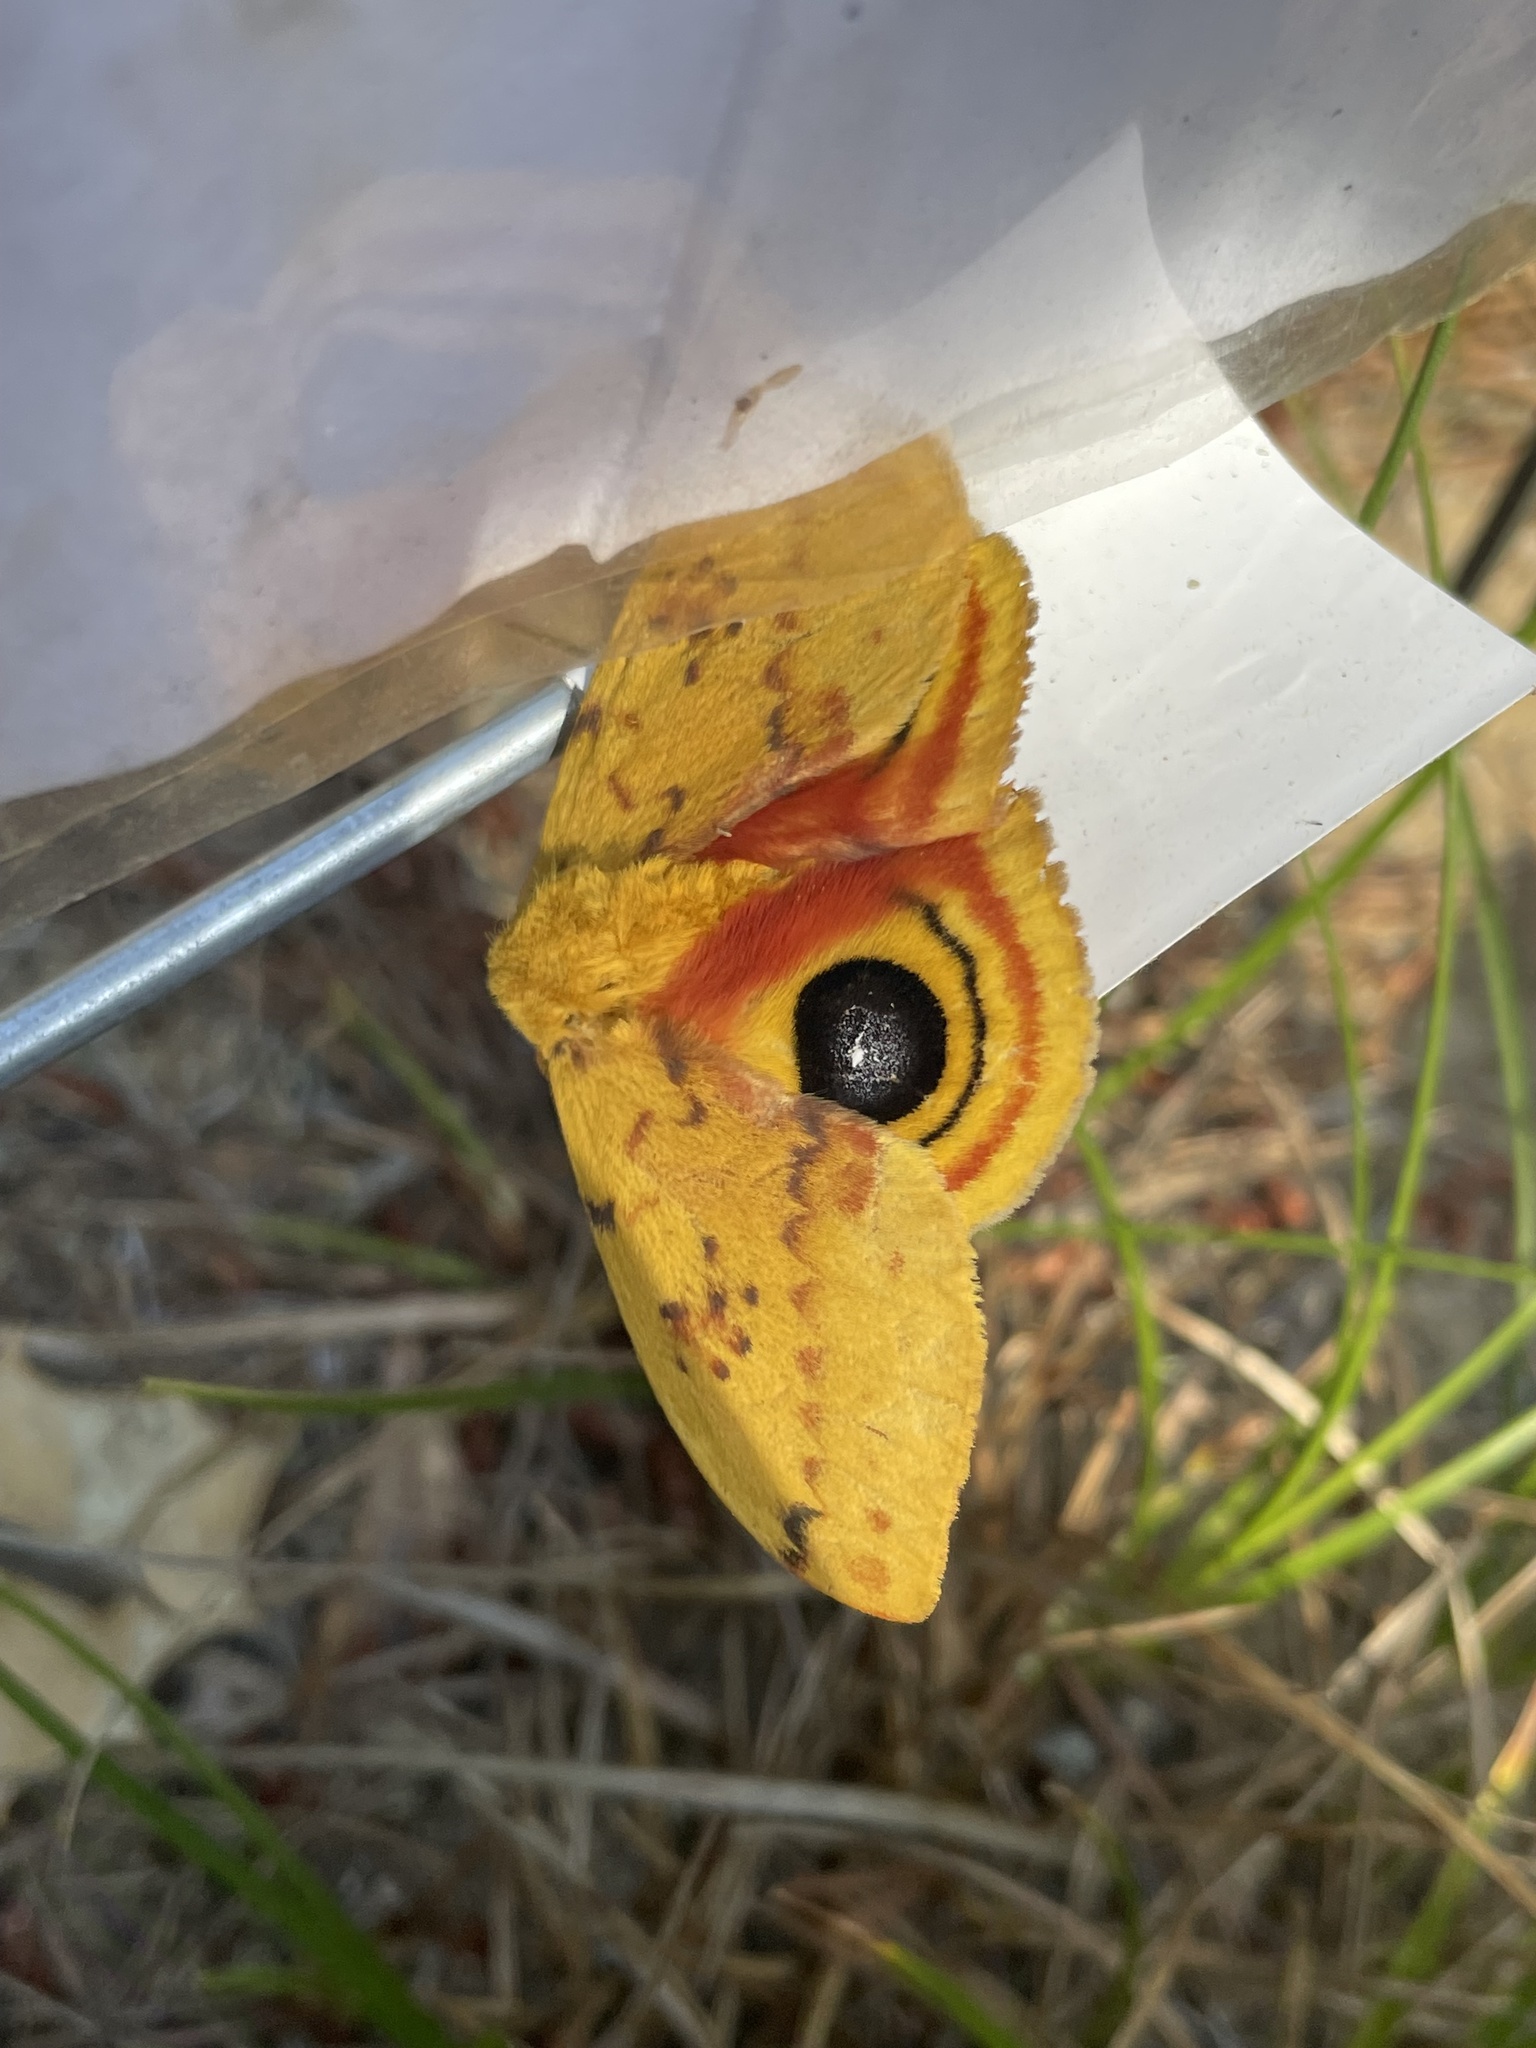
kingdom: Animalia
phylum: Arthropoda
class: Insecta
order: Lepidoptera
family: Saturniidae
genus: Automeris
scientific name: Automeris io
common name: Io moth
